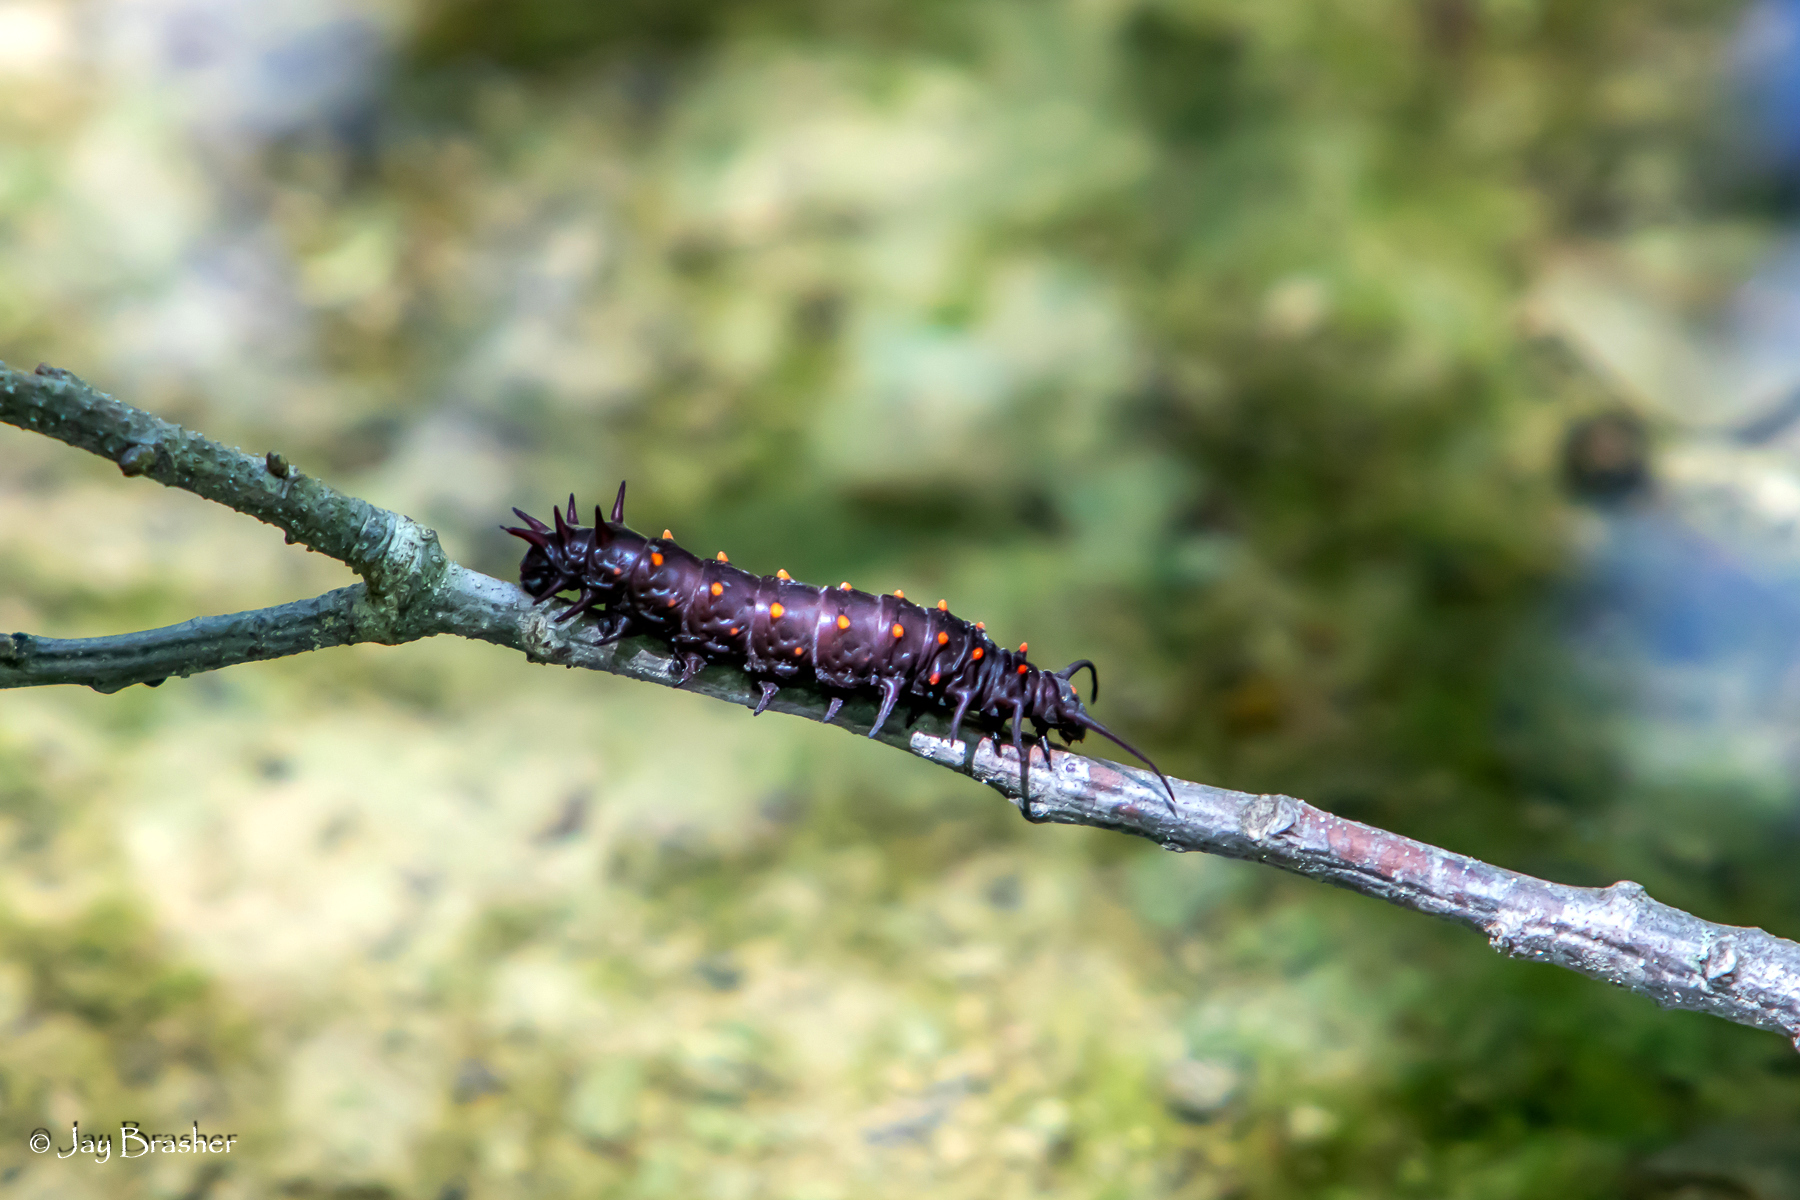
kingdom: Animalia
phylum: Arthropoda
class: Insecta
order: Lepidoptera
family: Papilionidae
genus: Battus
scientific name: Battus philenor
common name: Pipevine swallowtail
